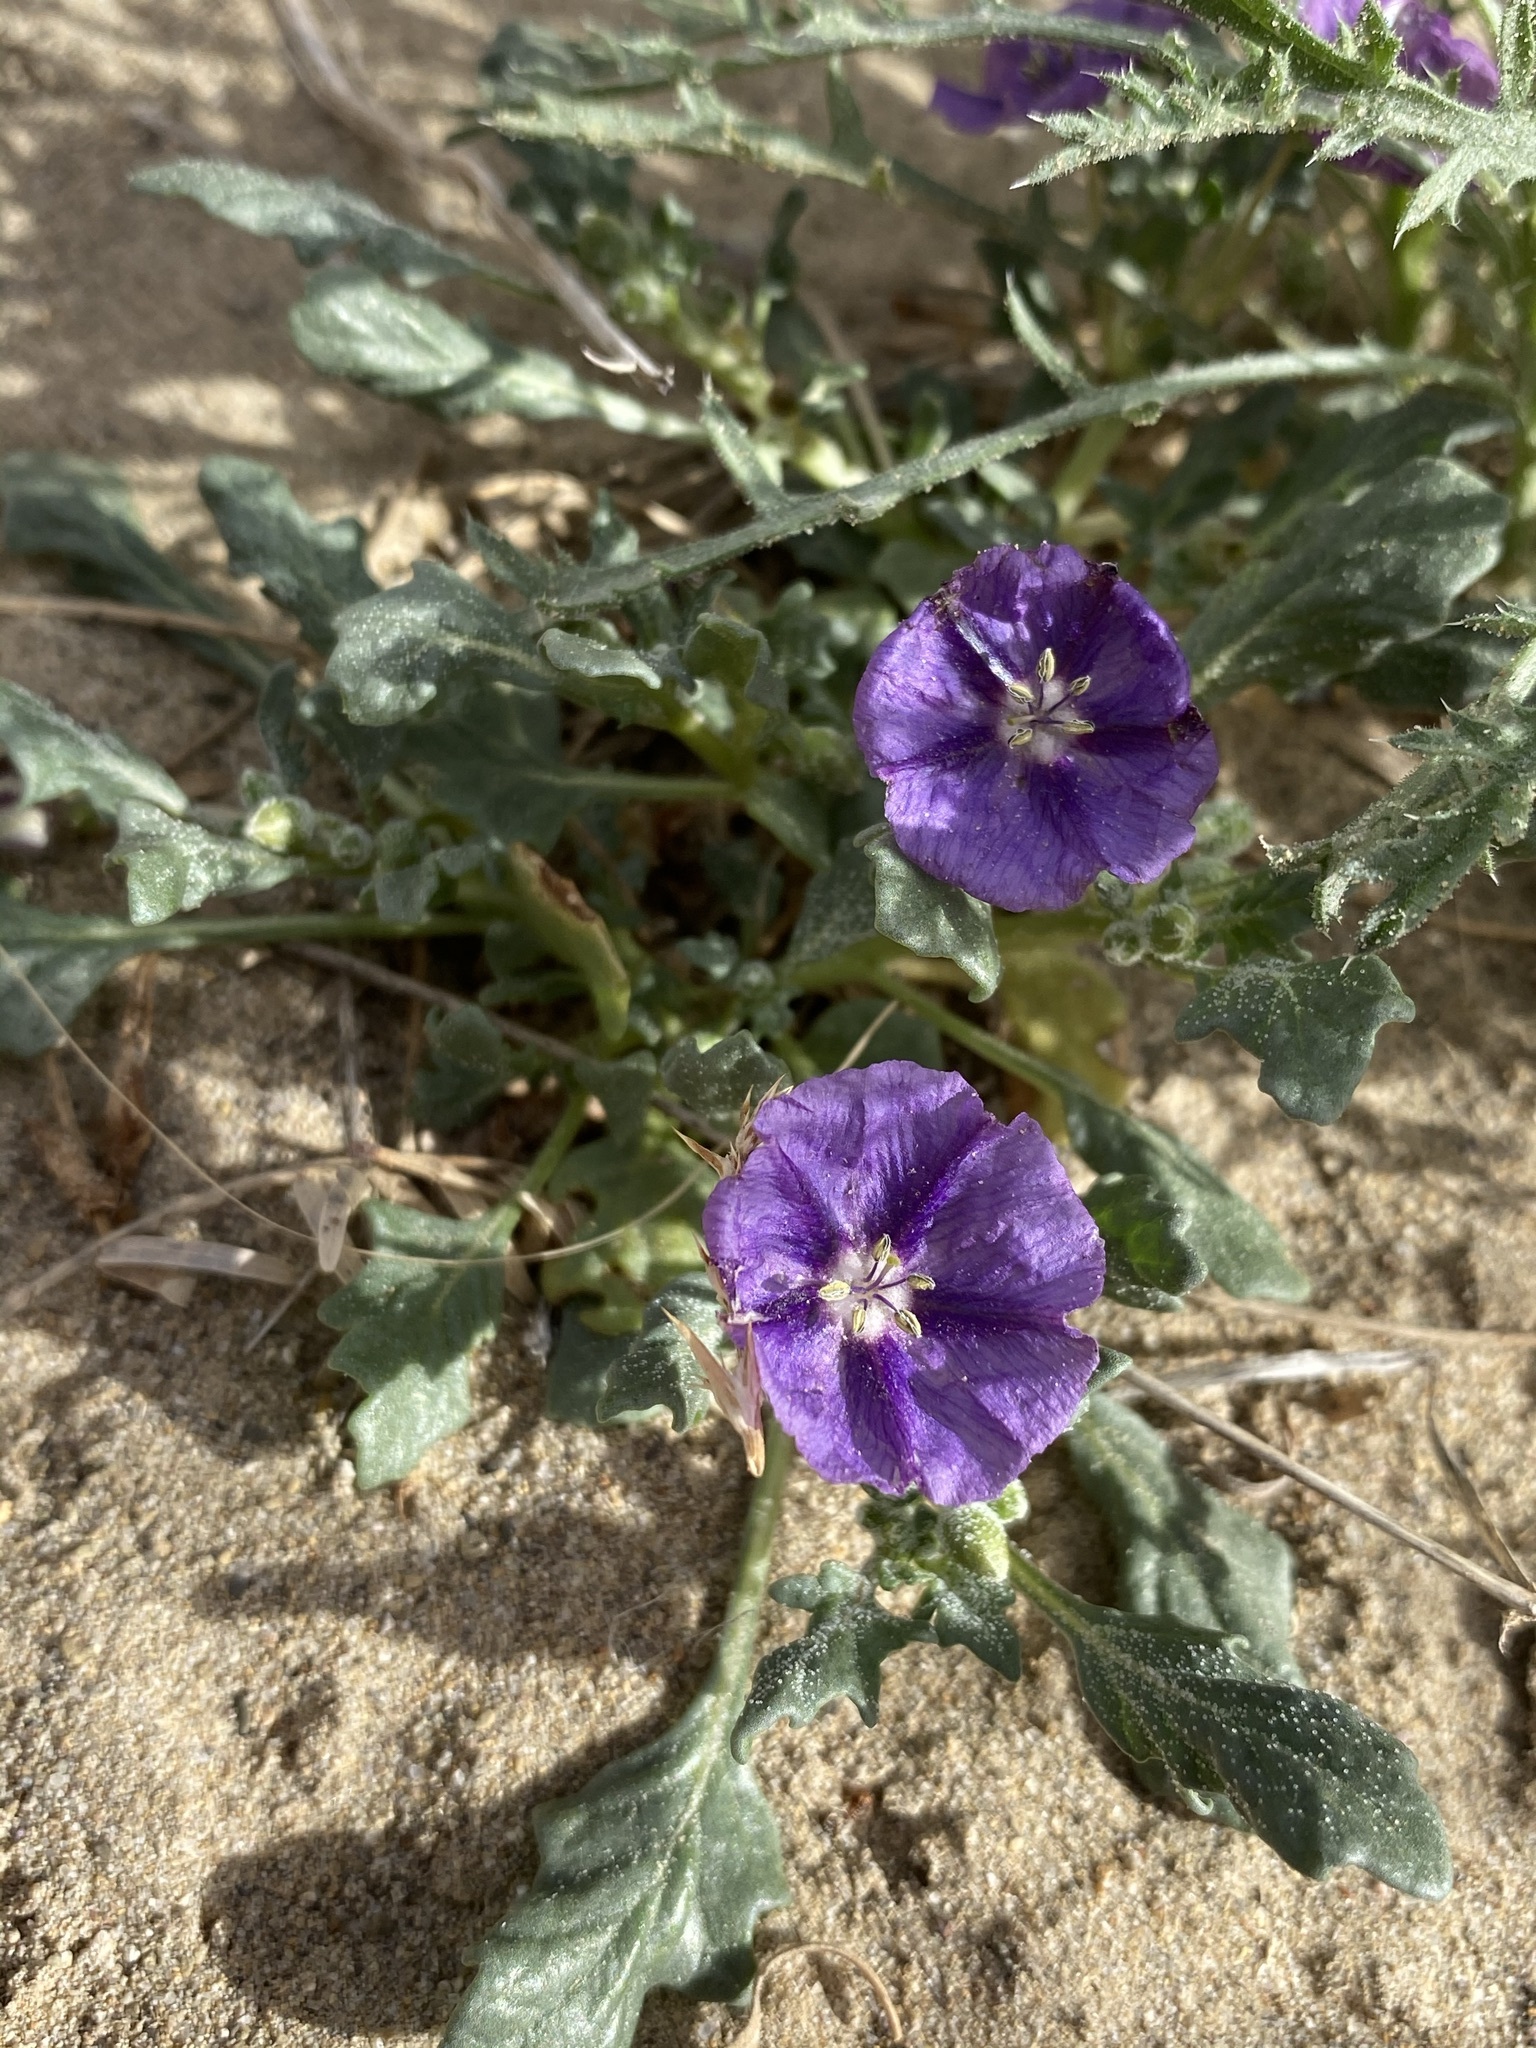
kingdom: Plantae
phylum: Tracheophyta
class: Magnoliopsida
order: Solanales
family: Solanaceae
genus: Quincula
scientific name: Quincula lobata
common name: Purple-ground-cherry
